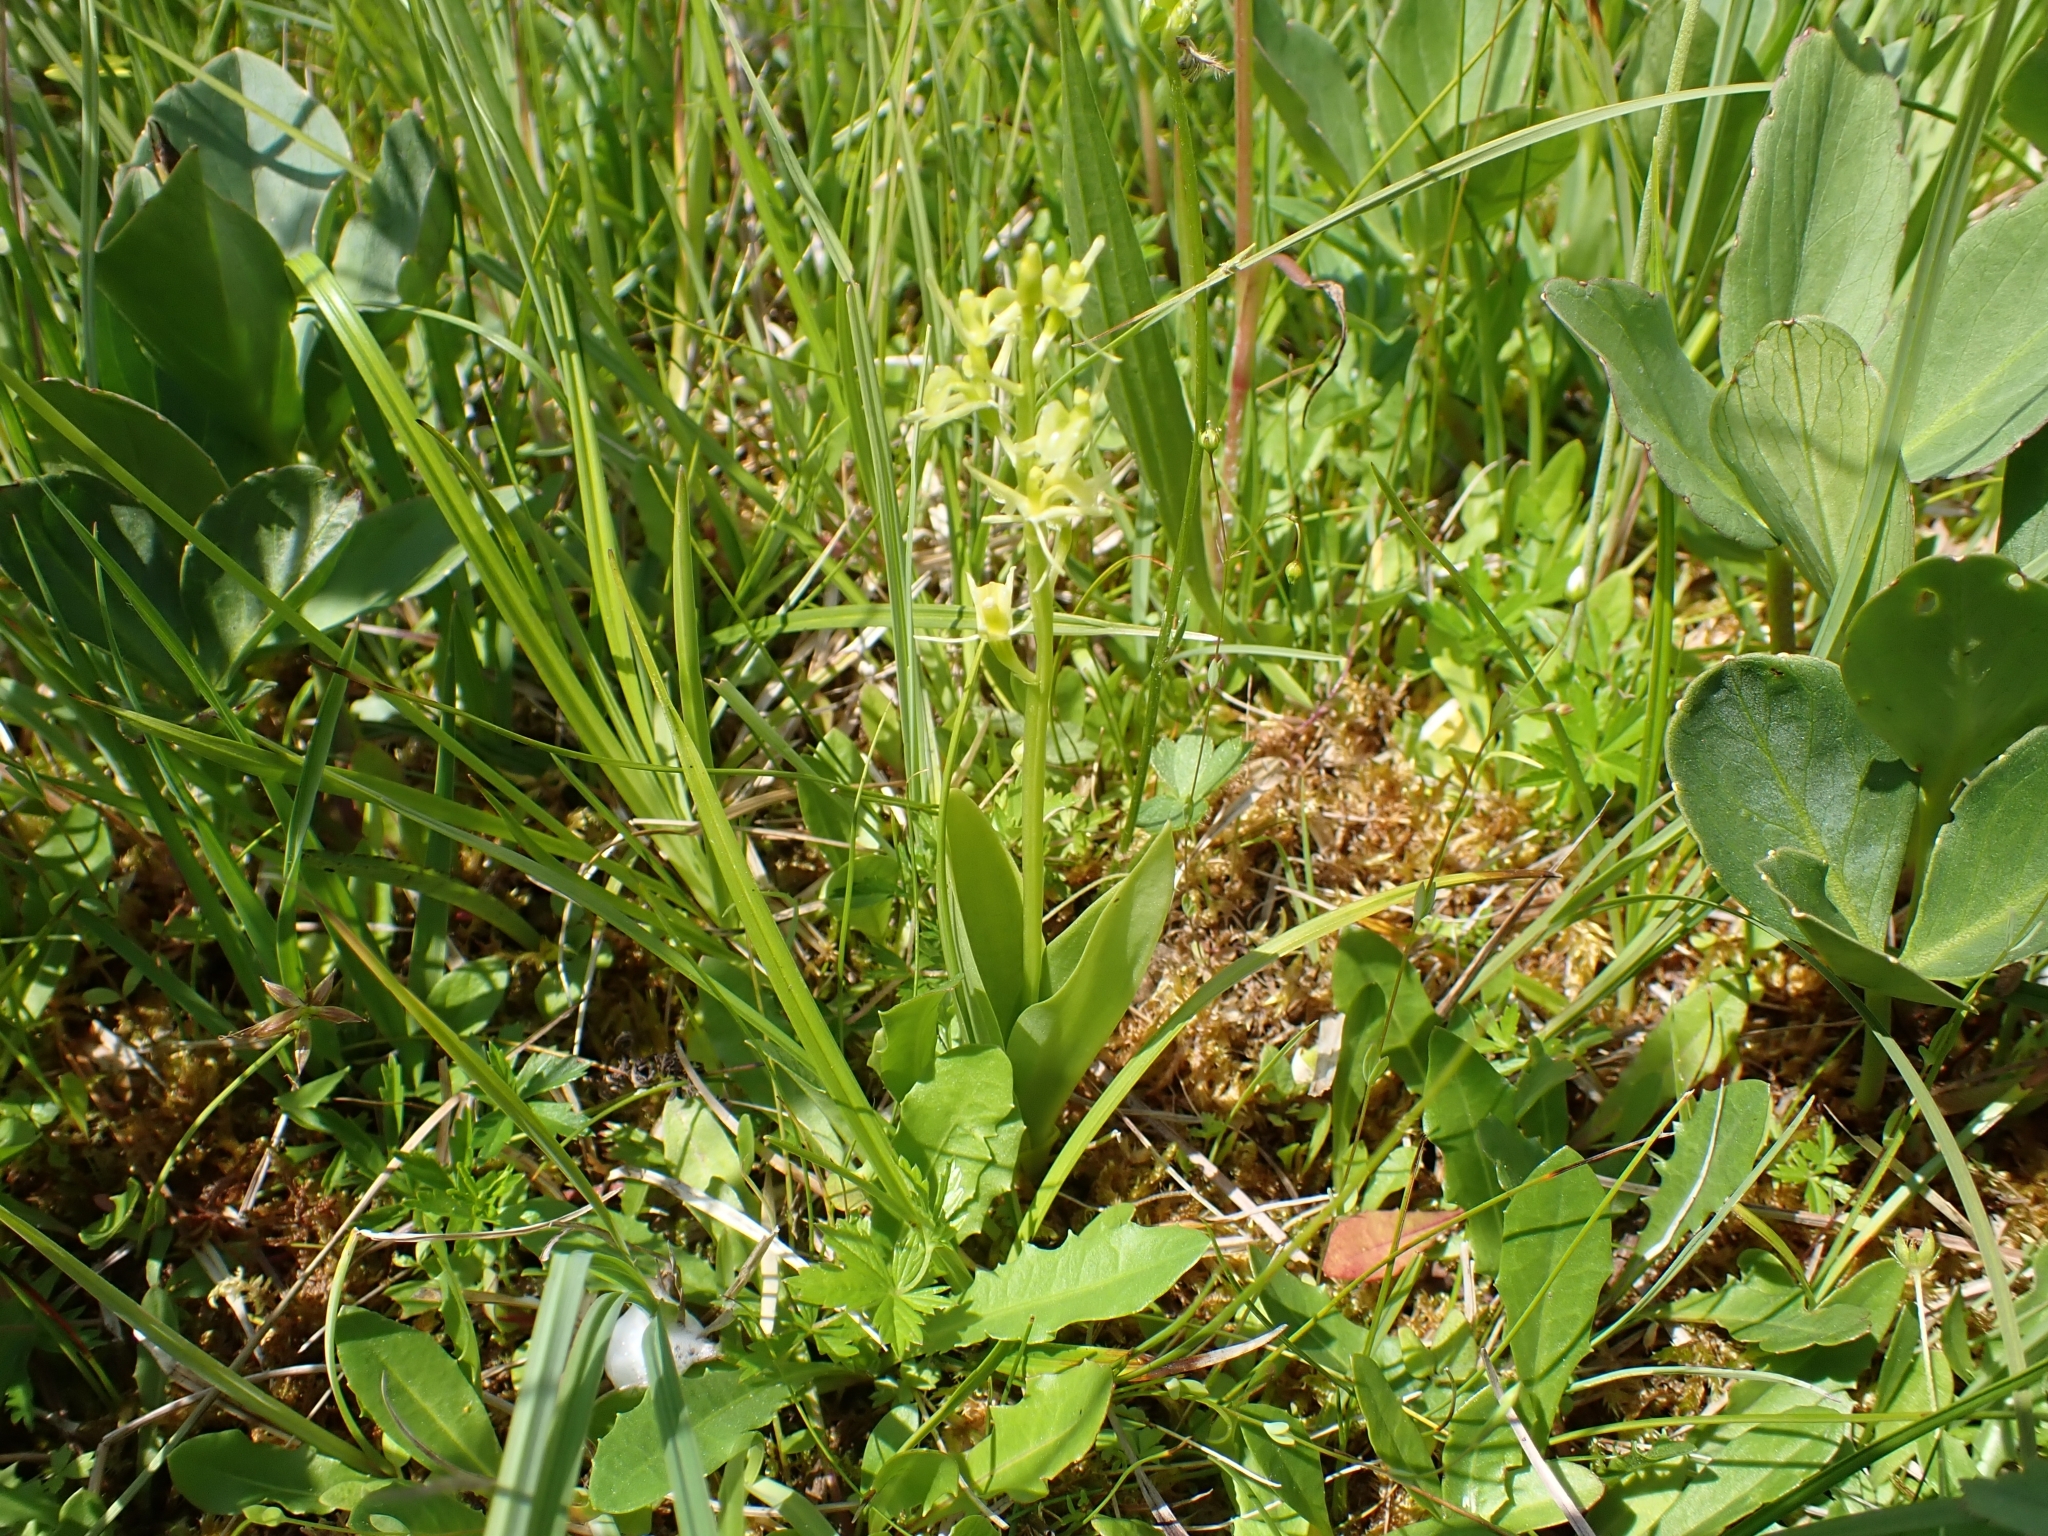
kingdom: Animalia
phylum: Arthropoda
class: Insecta
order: Coleoptera
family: Curculionidae
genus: Liparis
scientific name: Liparis loeselii
